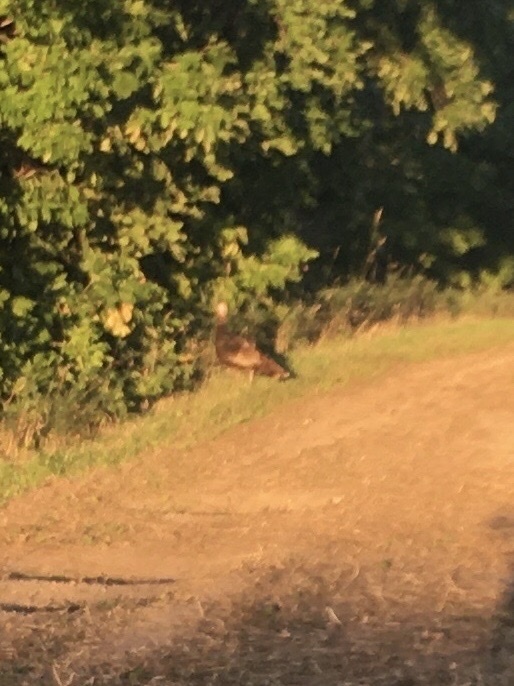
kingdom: Animalia
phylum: Chordata
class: Aves
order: Galliformes
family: Phasianidae
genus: Meleagris
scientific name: Meleagris gallopavo
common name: Wild turkey
